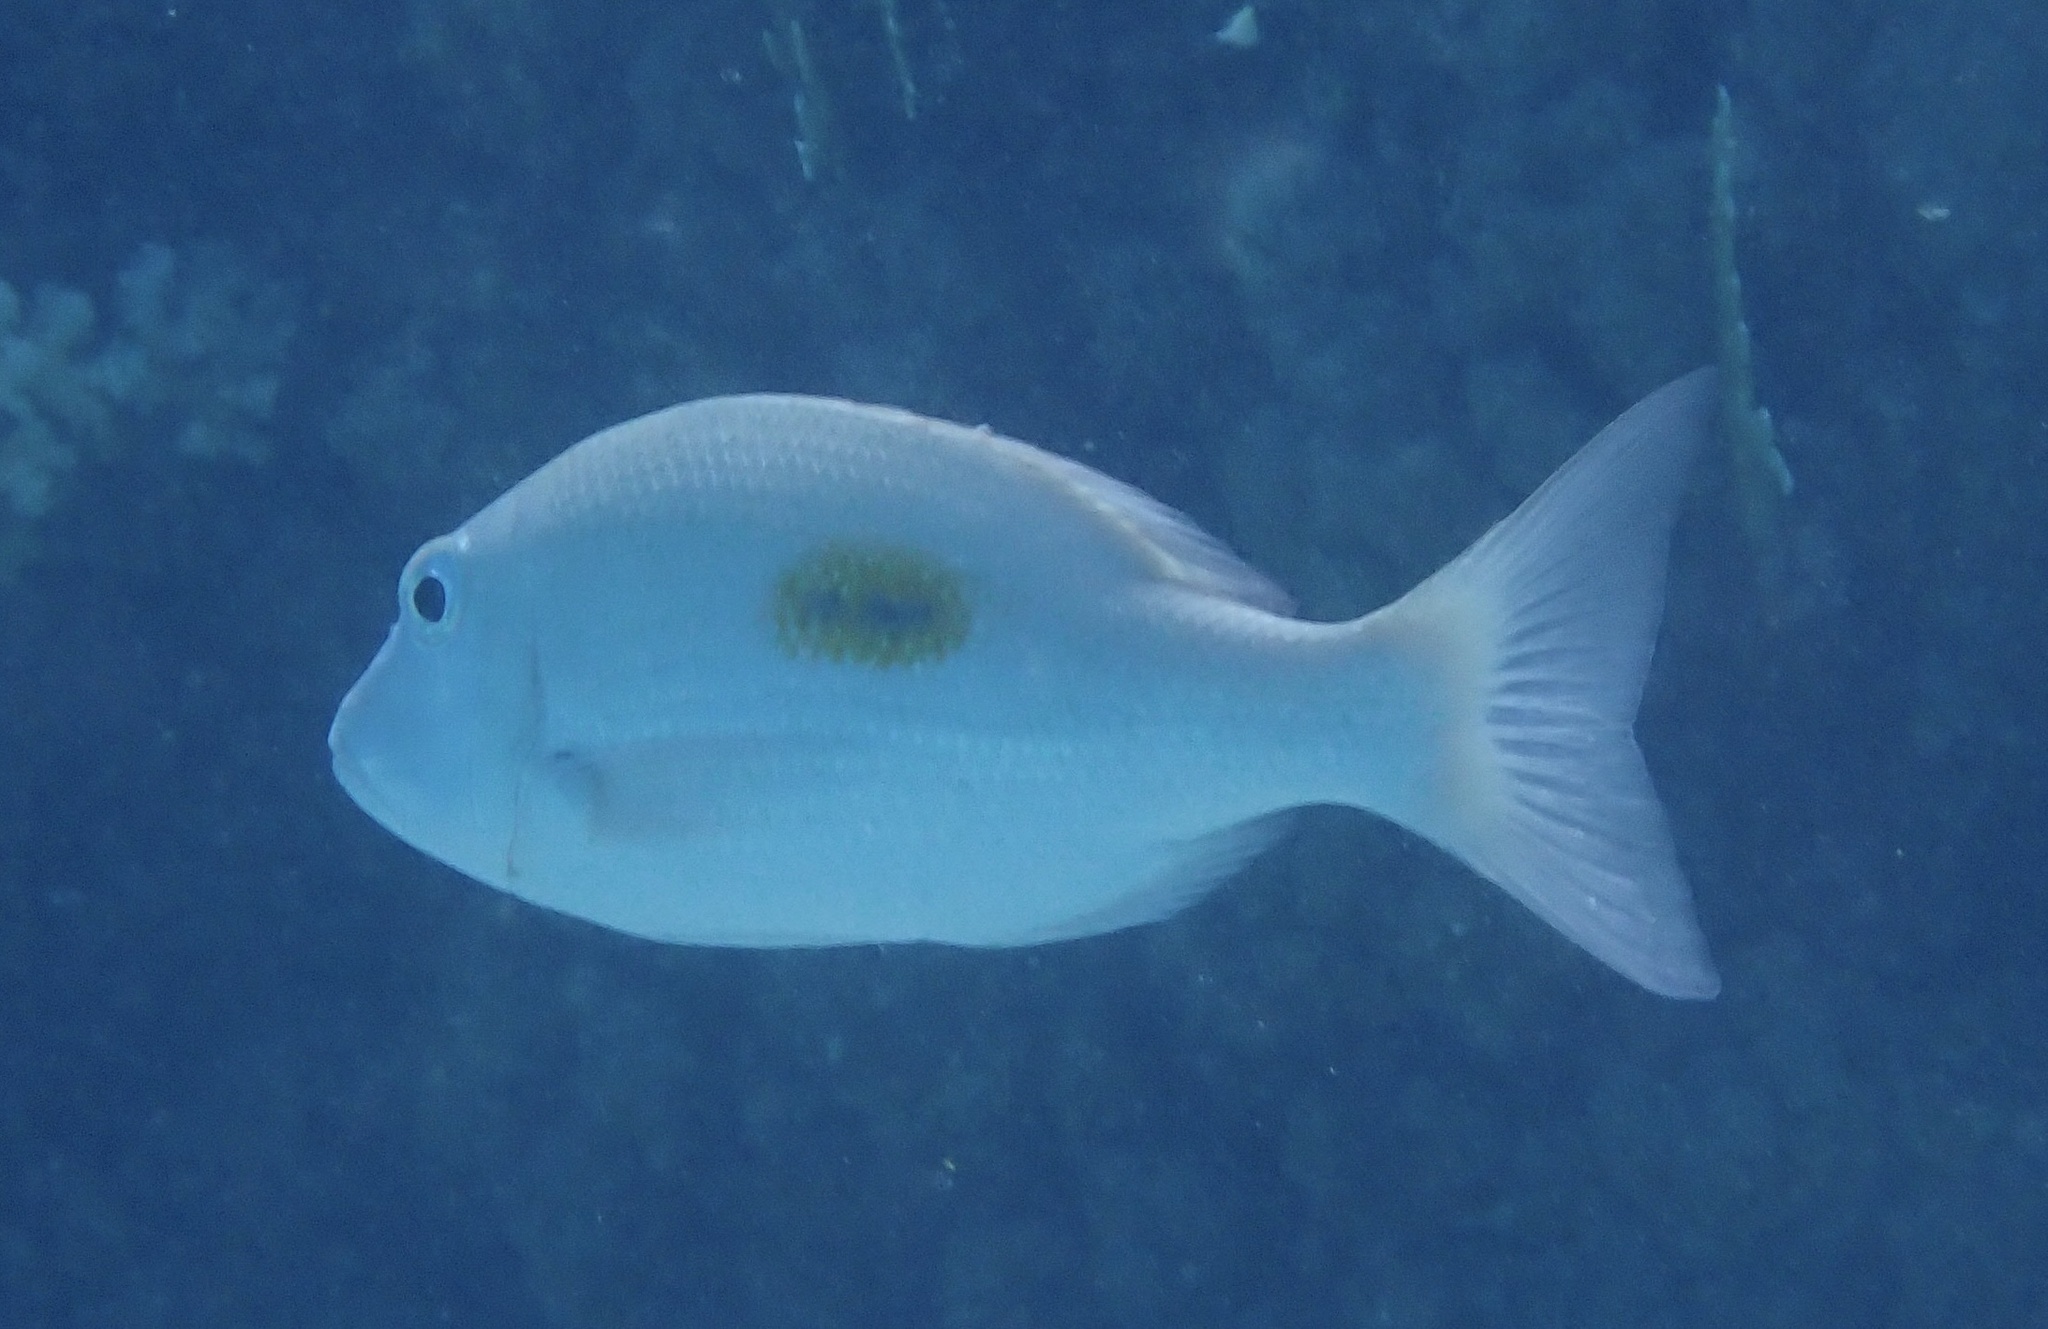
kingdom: Animalia
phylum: Chordata
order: Perciformes
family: Lethrinidae
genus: Lethrinus
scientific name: Lethrinus harak
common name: Blackspot emperor
